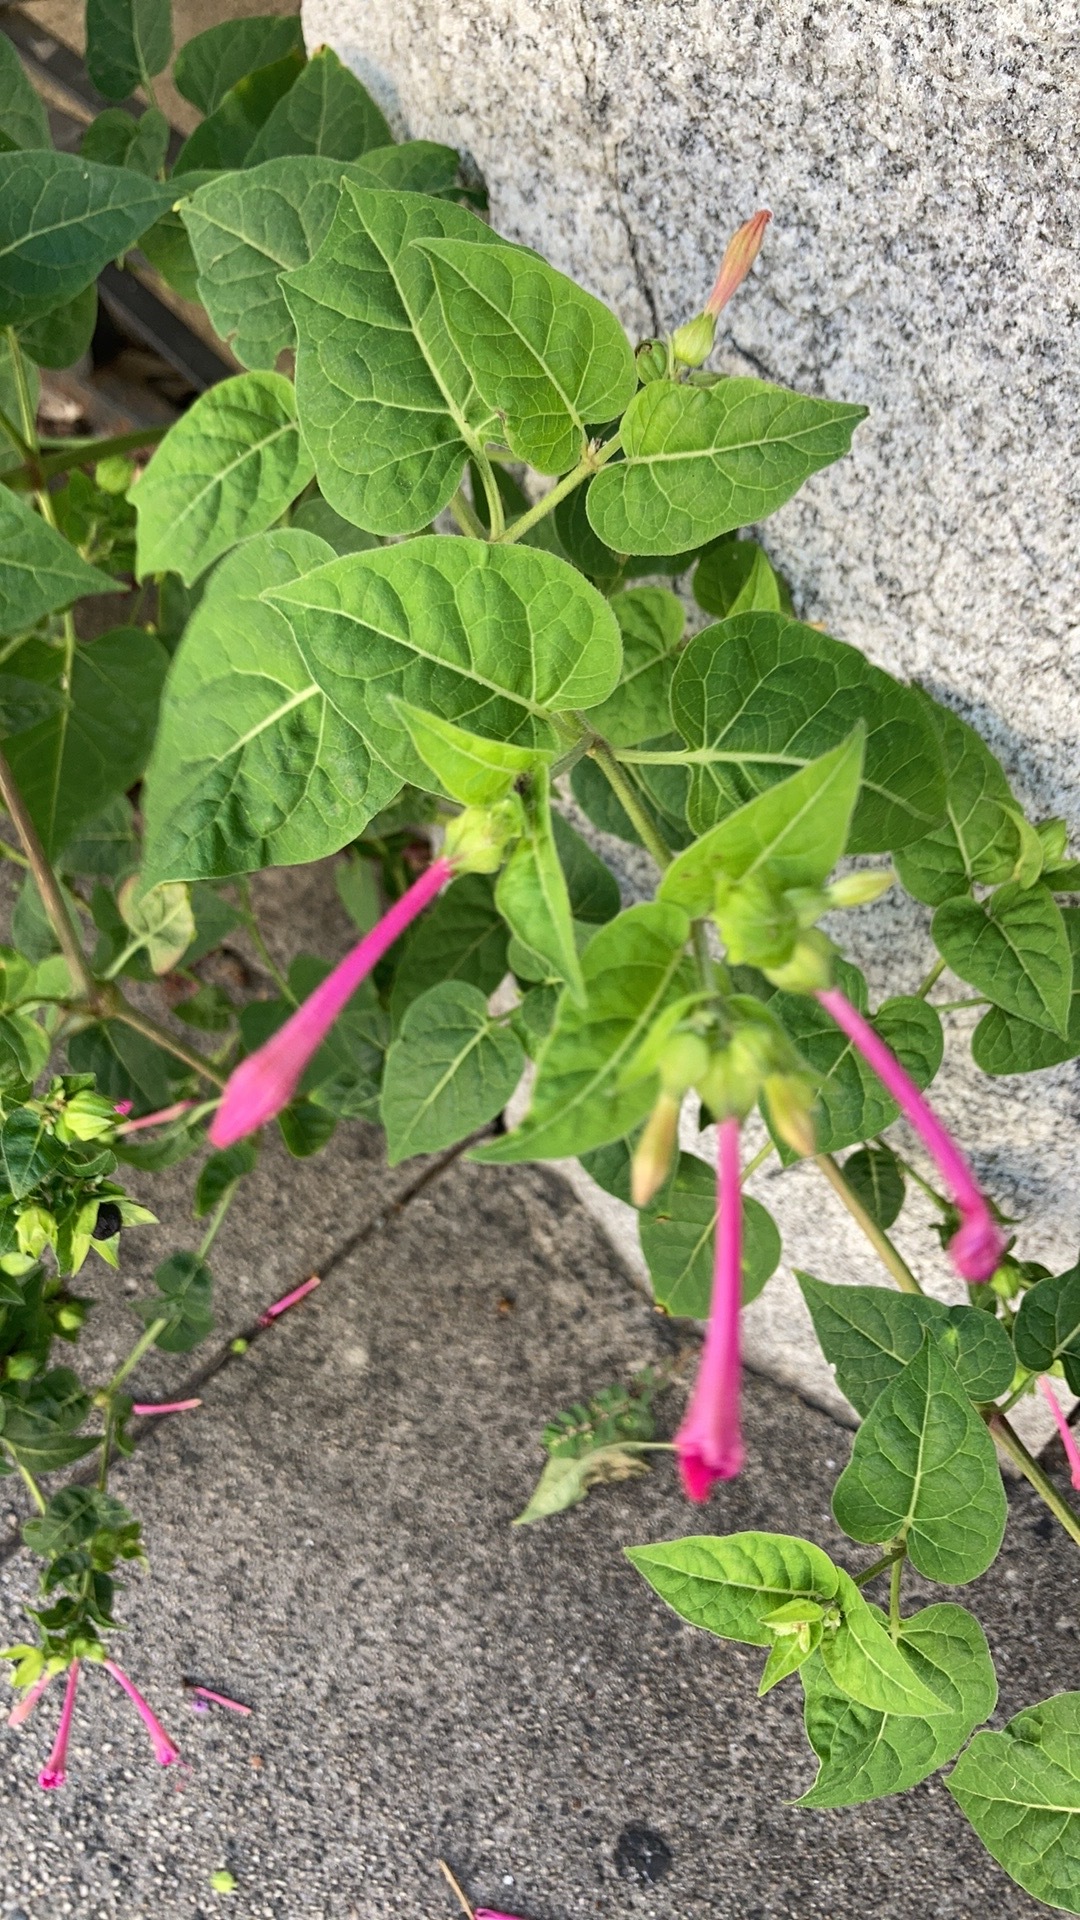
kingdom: Plantae
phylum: Tracheophyta
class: Magnoliopsida
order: Caryophyllales
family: Nyctaginaceae
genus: Mirabilis
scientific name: Mirabilis jalapa
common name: Marvel-of-peru
